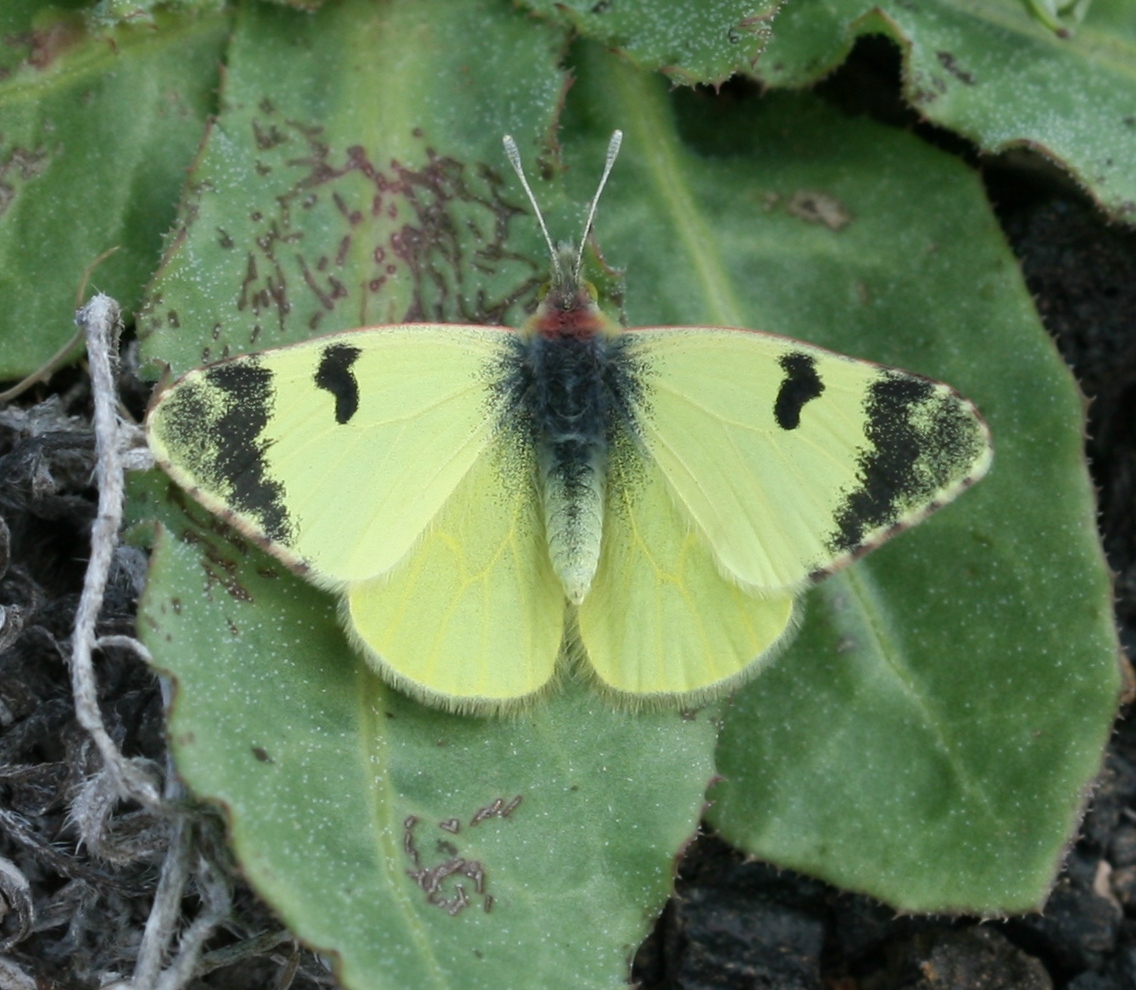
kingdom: Animalia
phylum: Arthropoda
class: Insecta
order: Lepidoptera
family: Pieridae
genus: Elphinstonia
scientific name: Elphinstonia charlonia
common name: Greenish black-tip
